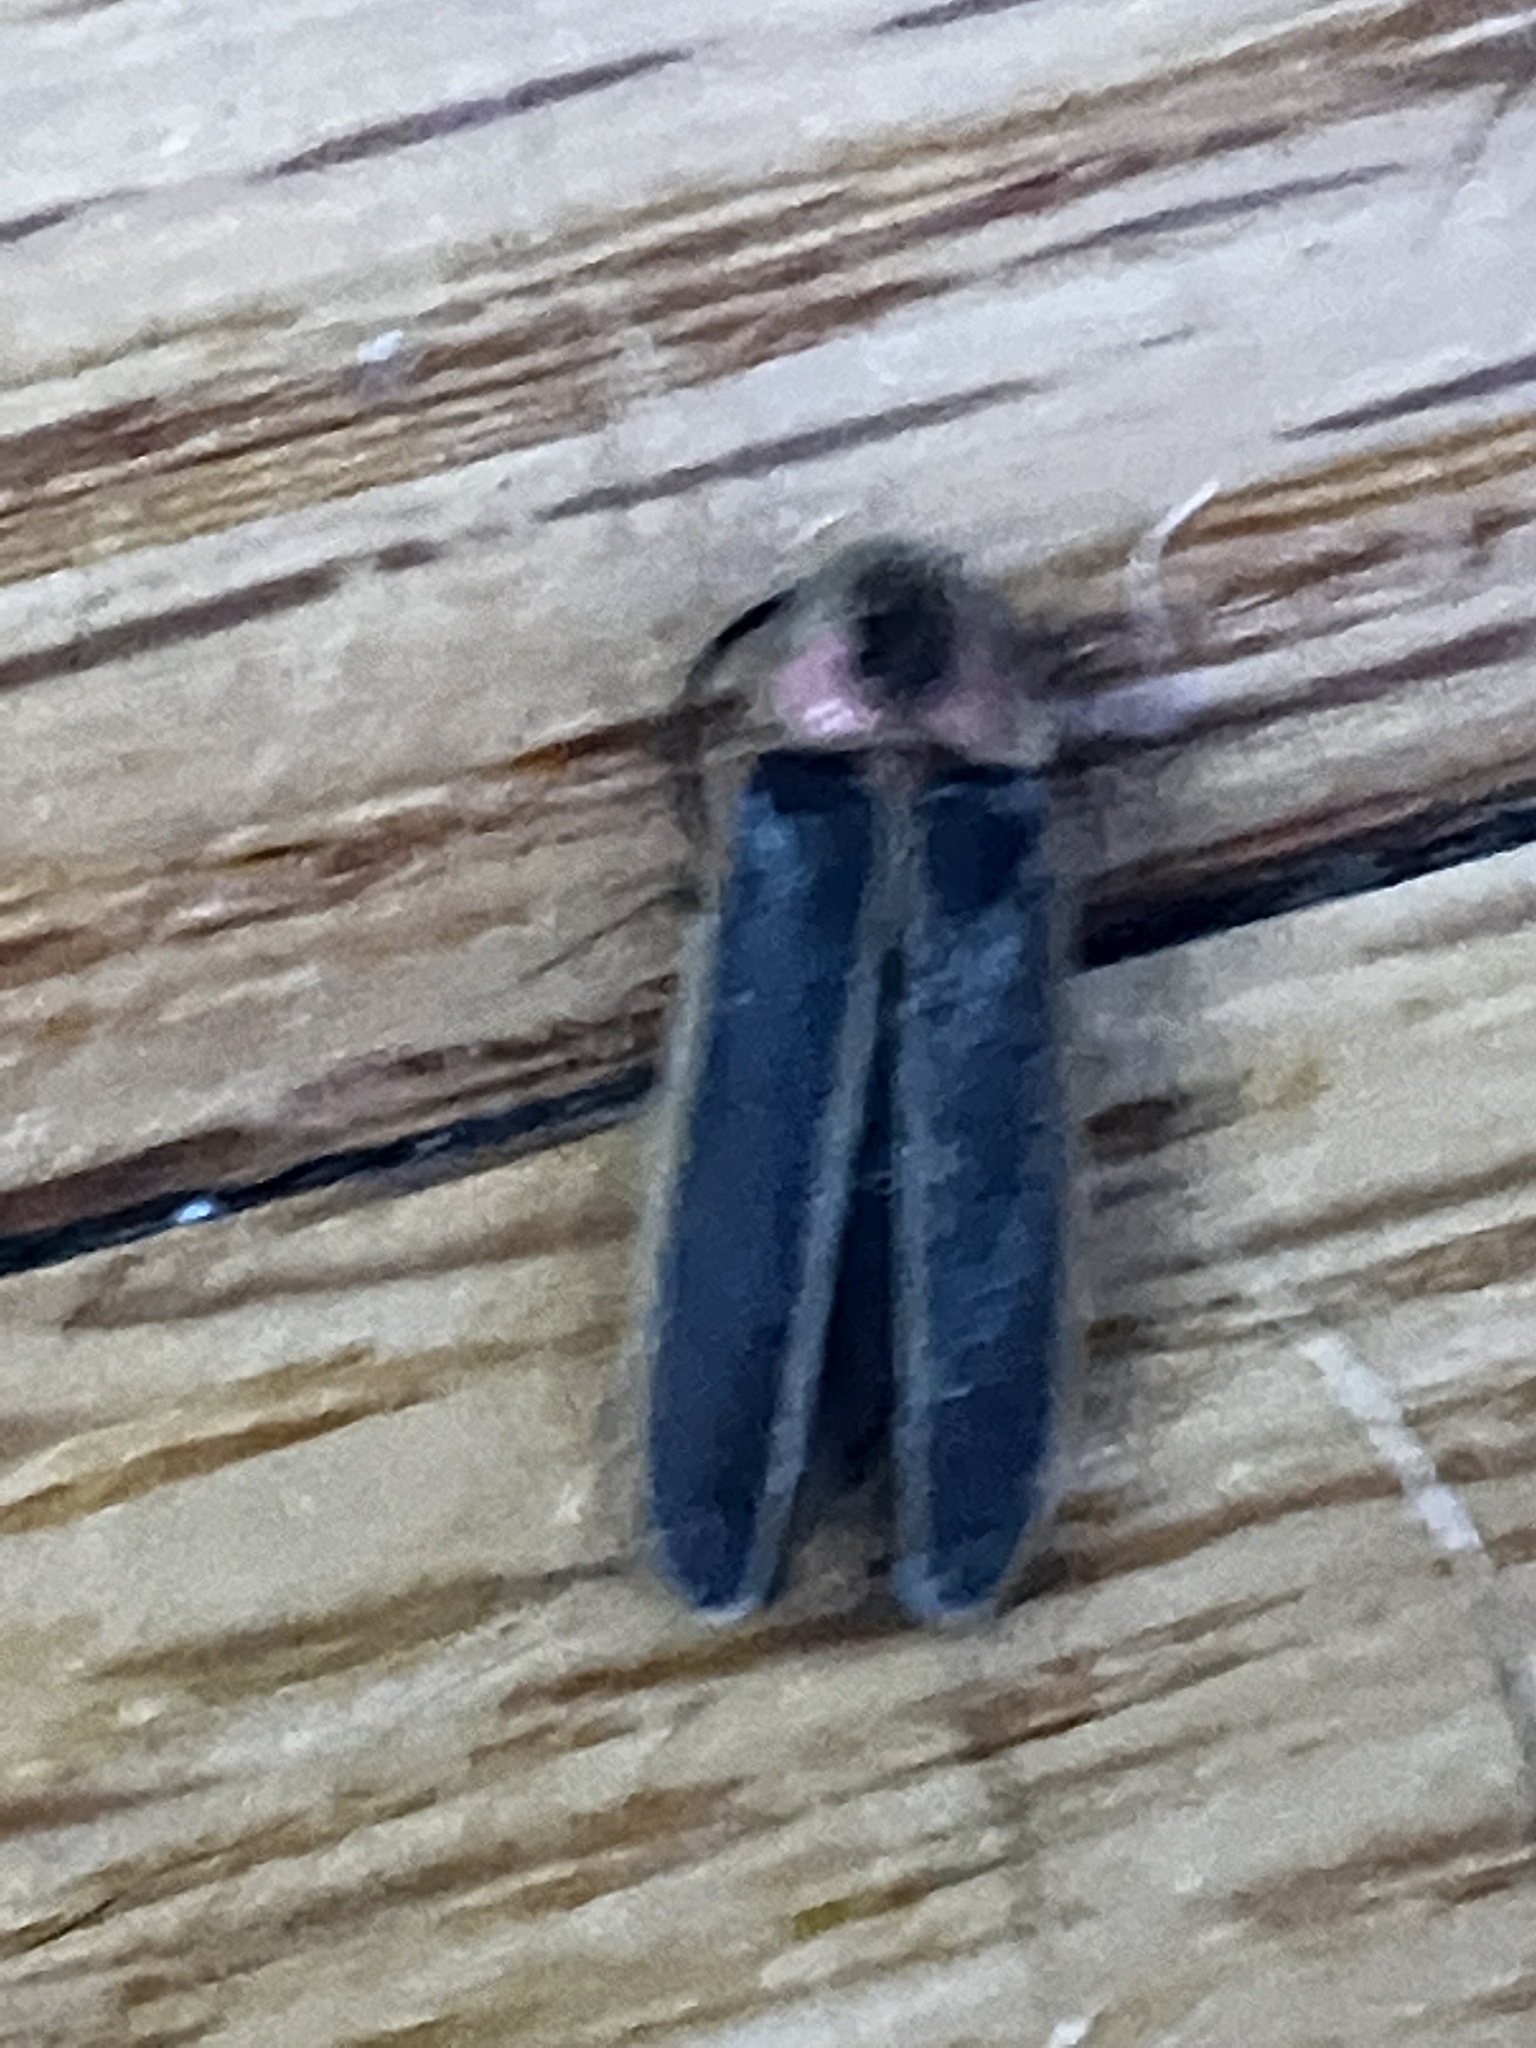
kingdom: Animalia
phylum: Arthropoda
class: Insecta
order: Coleoptera
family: Lampyridae
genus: Photinus
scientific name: Photinus pyralis
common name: Big dipper firefly
